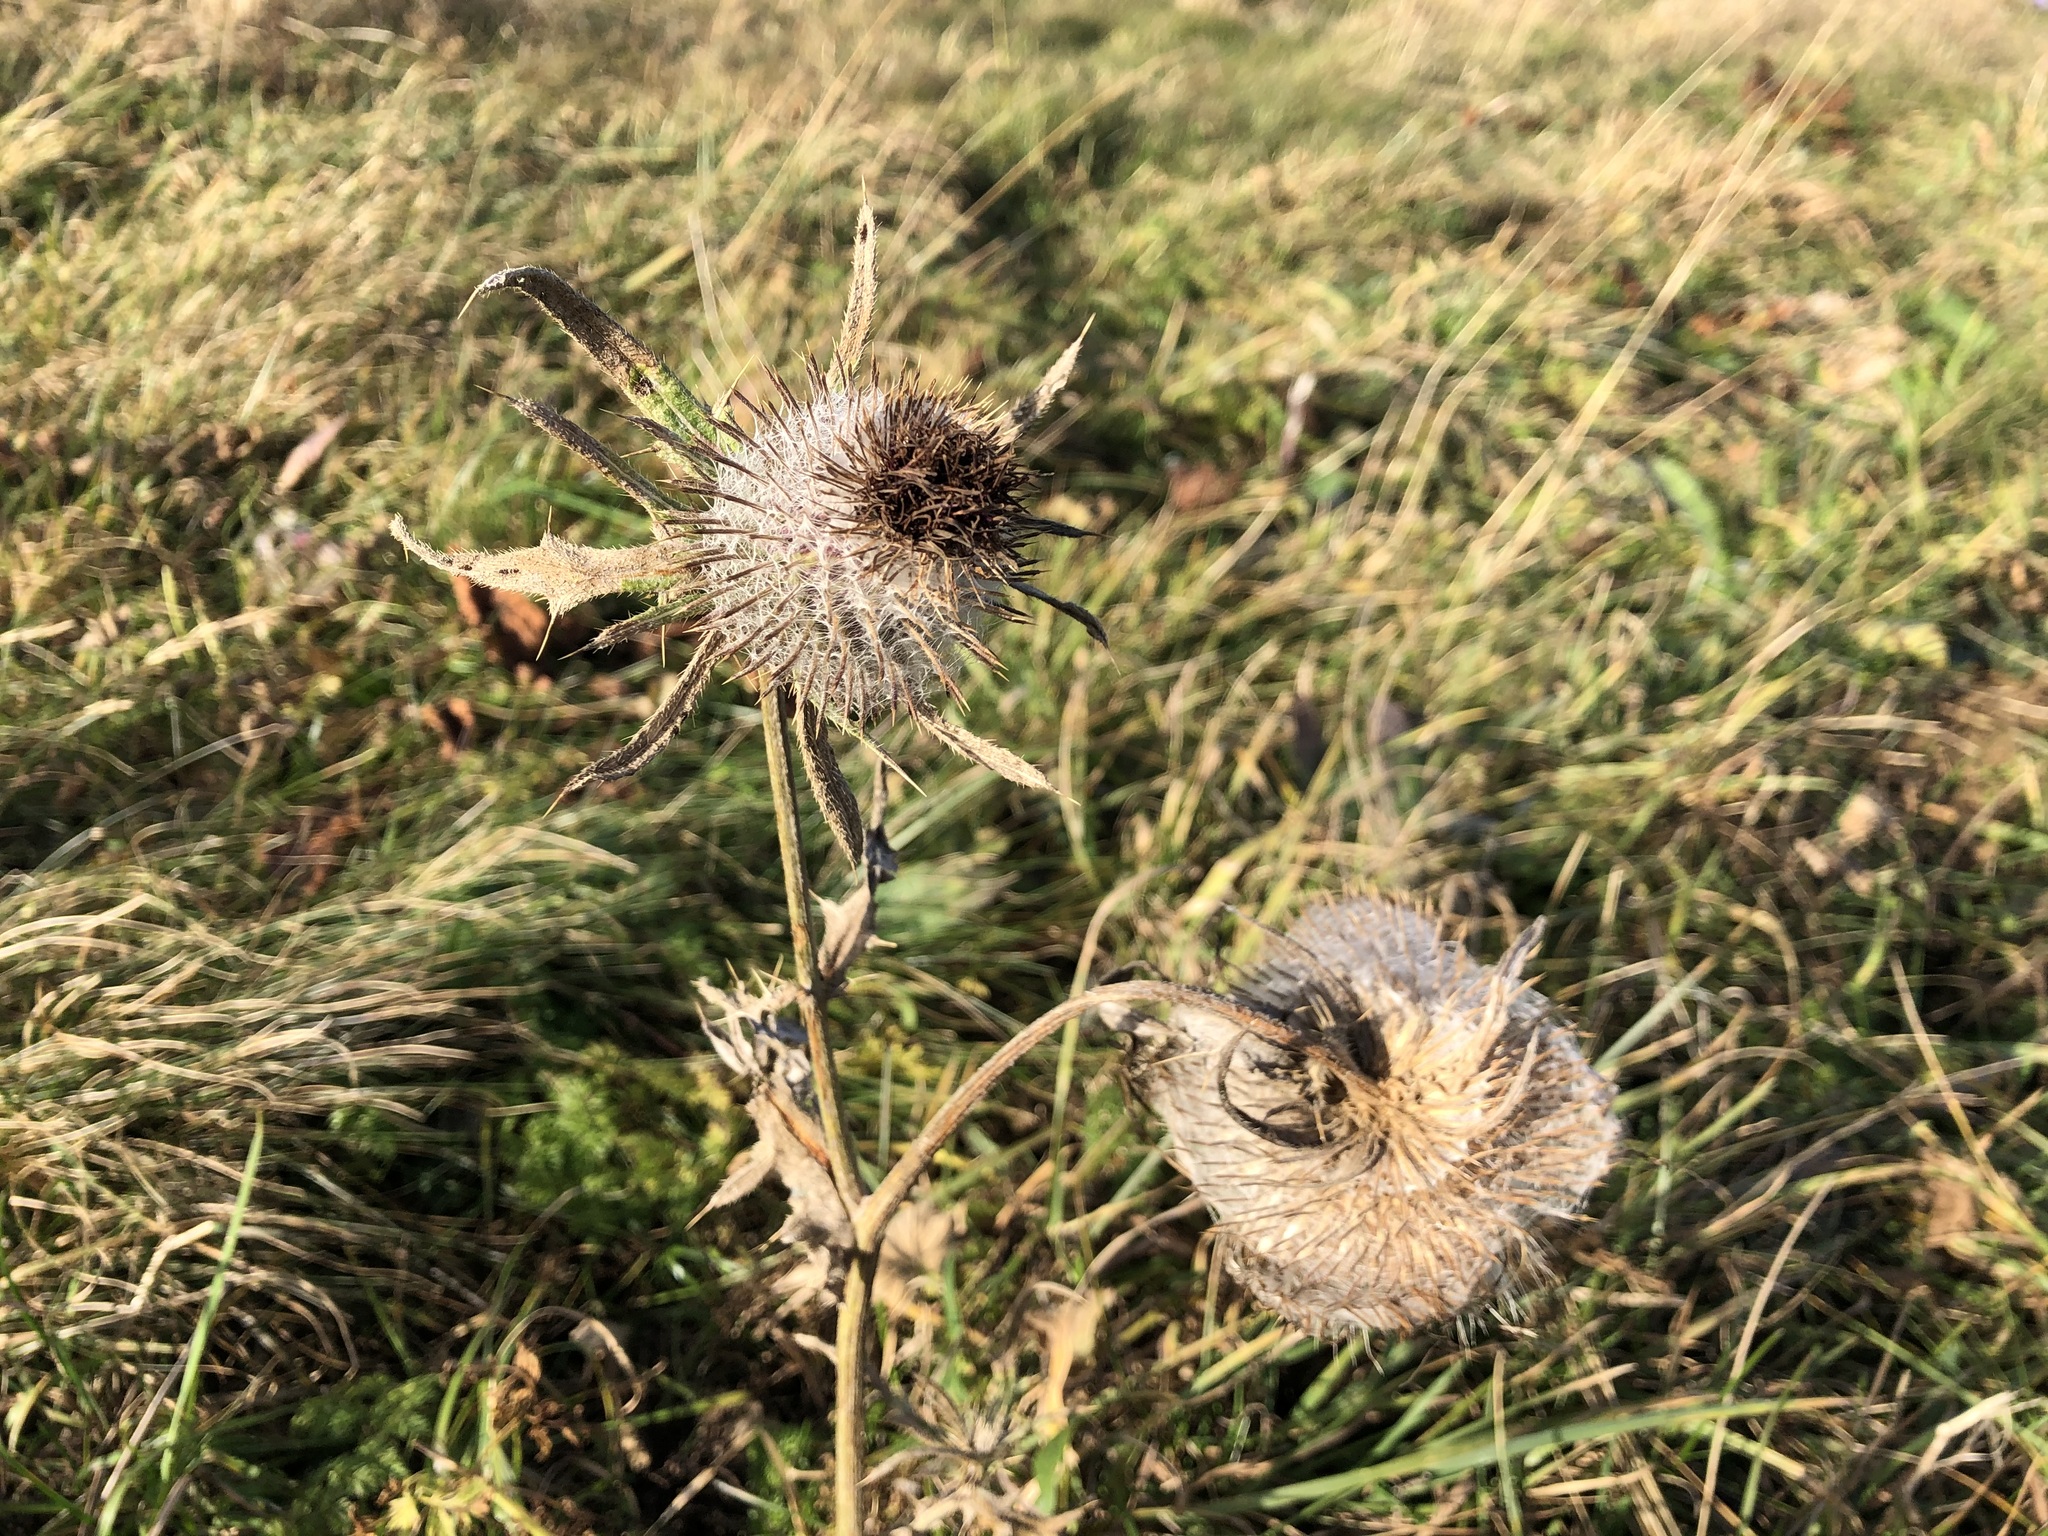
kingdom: Plantae
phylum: Tracheophyta
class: Magnoliopsida
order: Asterales
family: Asteraceae
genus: Lophiolepis
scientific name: Lophiolepis eriophora
